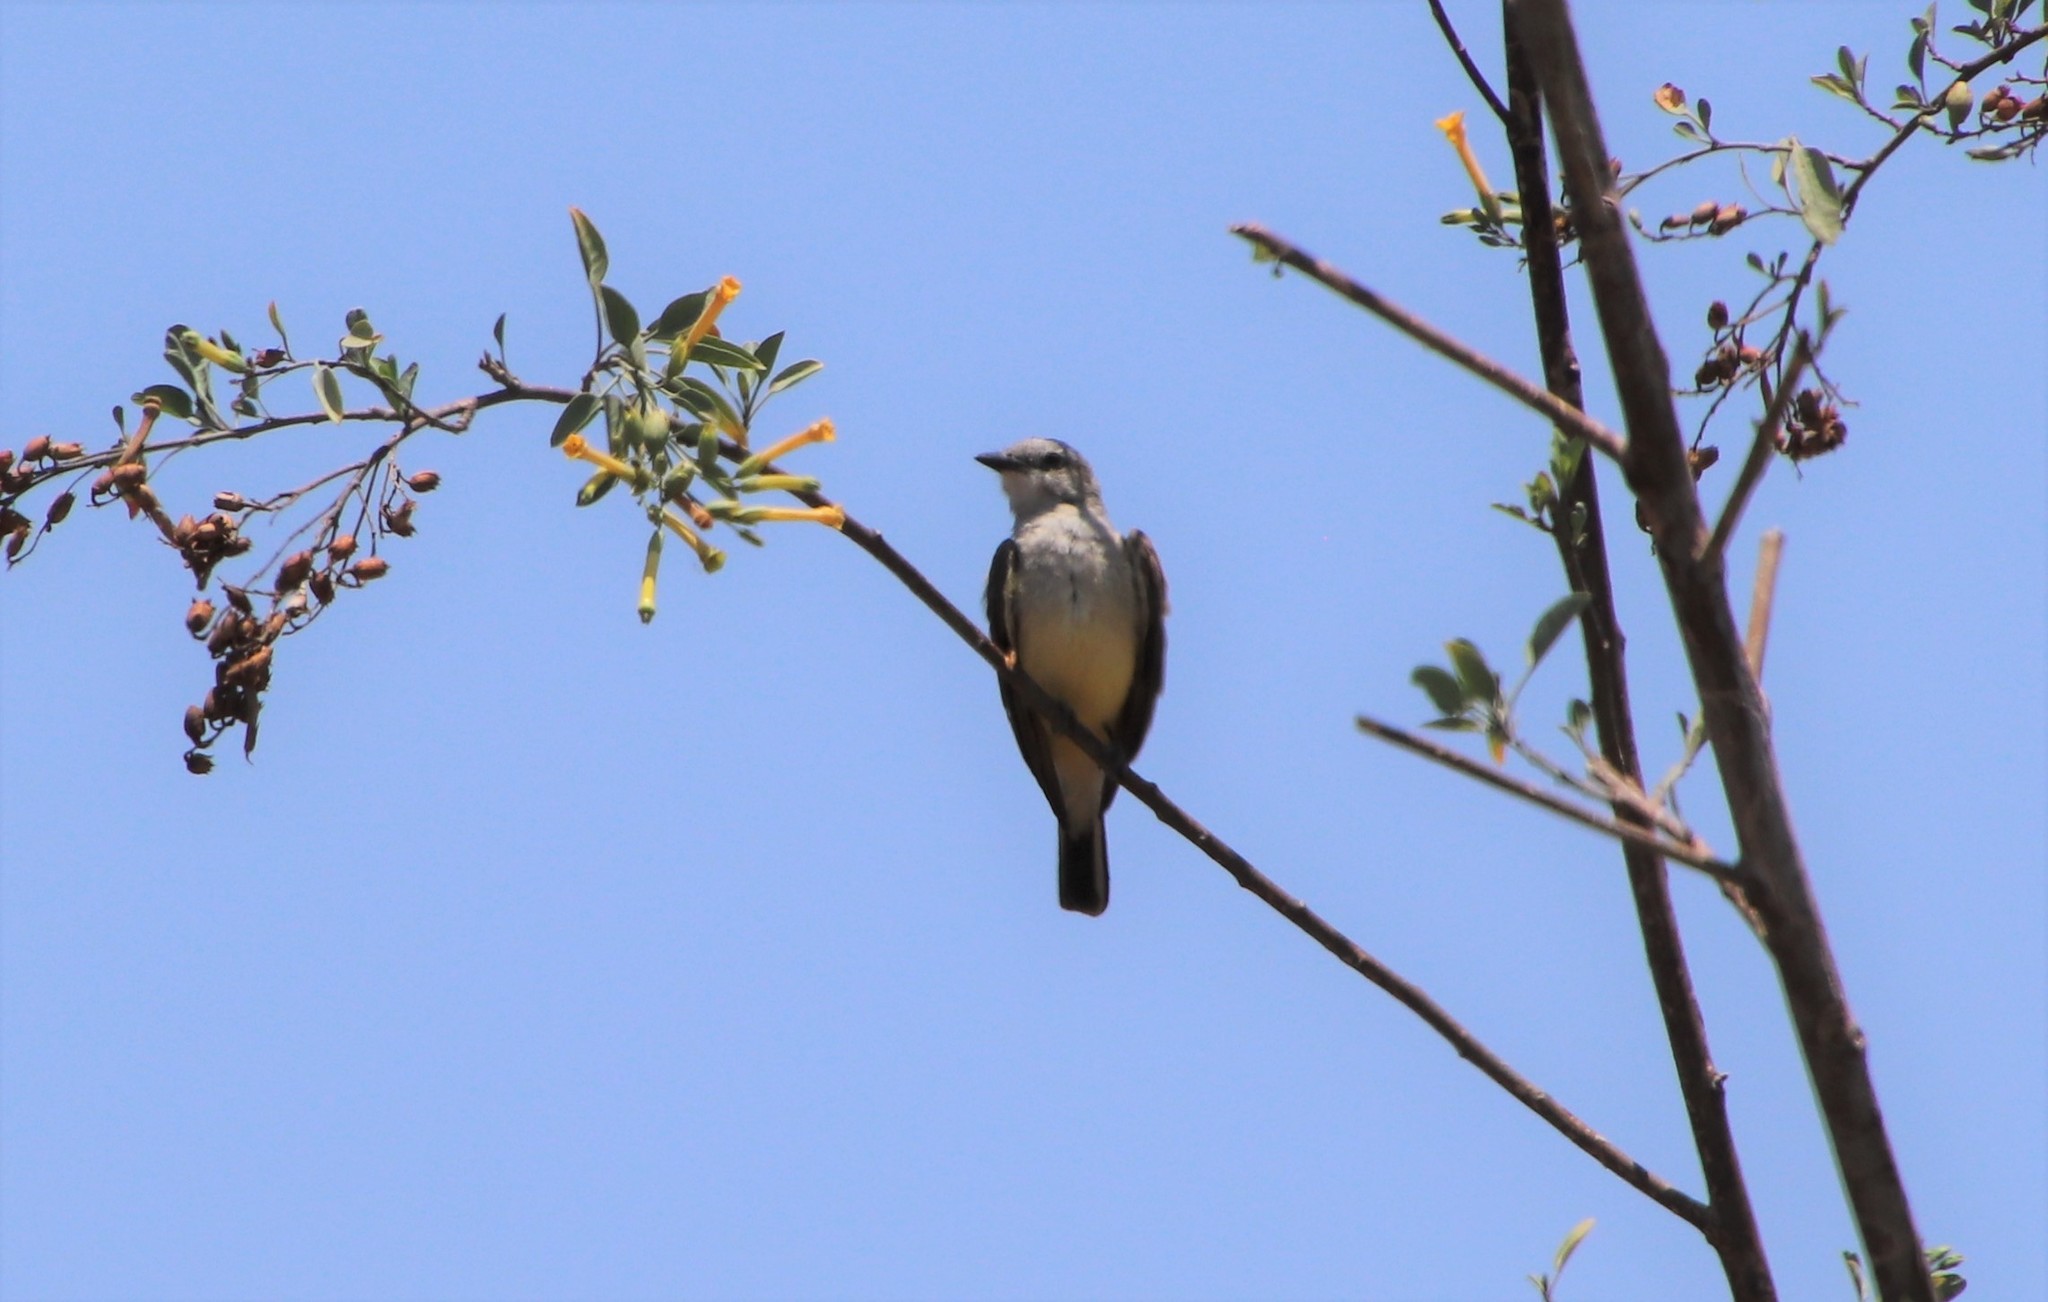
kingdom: Animalia
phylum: Chordata
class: Aves
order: Passeriformes
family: Tyrannidae
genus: Tyrannus
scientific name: Tyrannus verticalis
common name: Western kingbird
